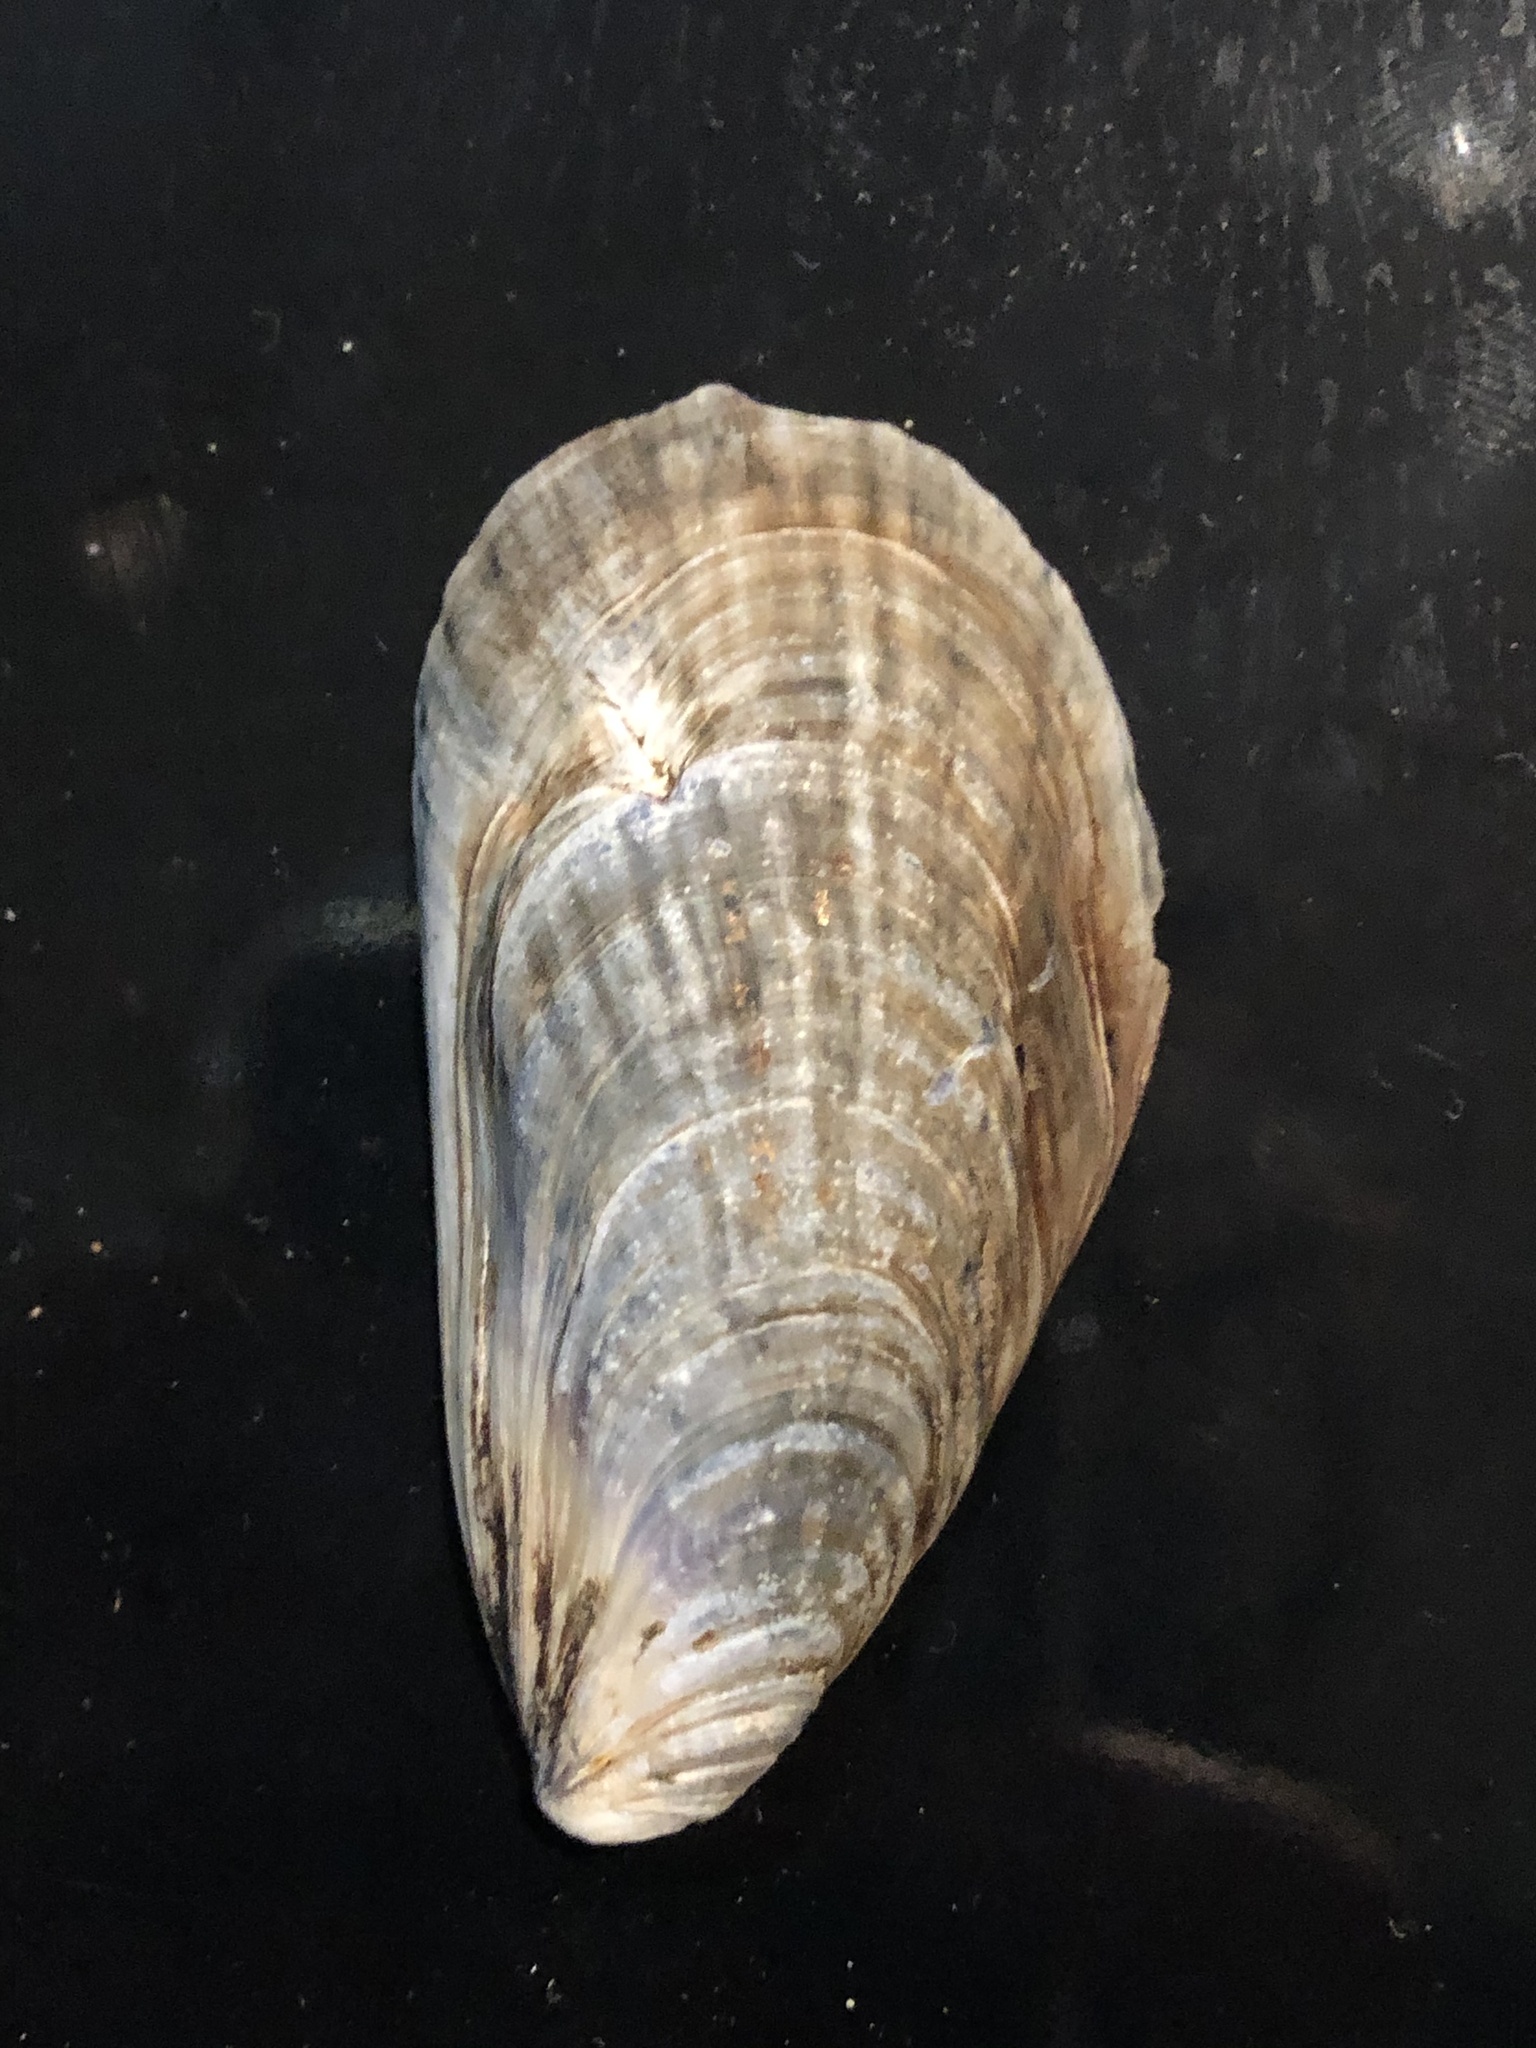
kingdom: Animalia
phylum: Mollusca
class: Bivalvia
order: Mytilida
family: Mytilidae
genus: Mytilus
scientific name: Mytilus californianus
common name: California mussel
